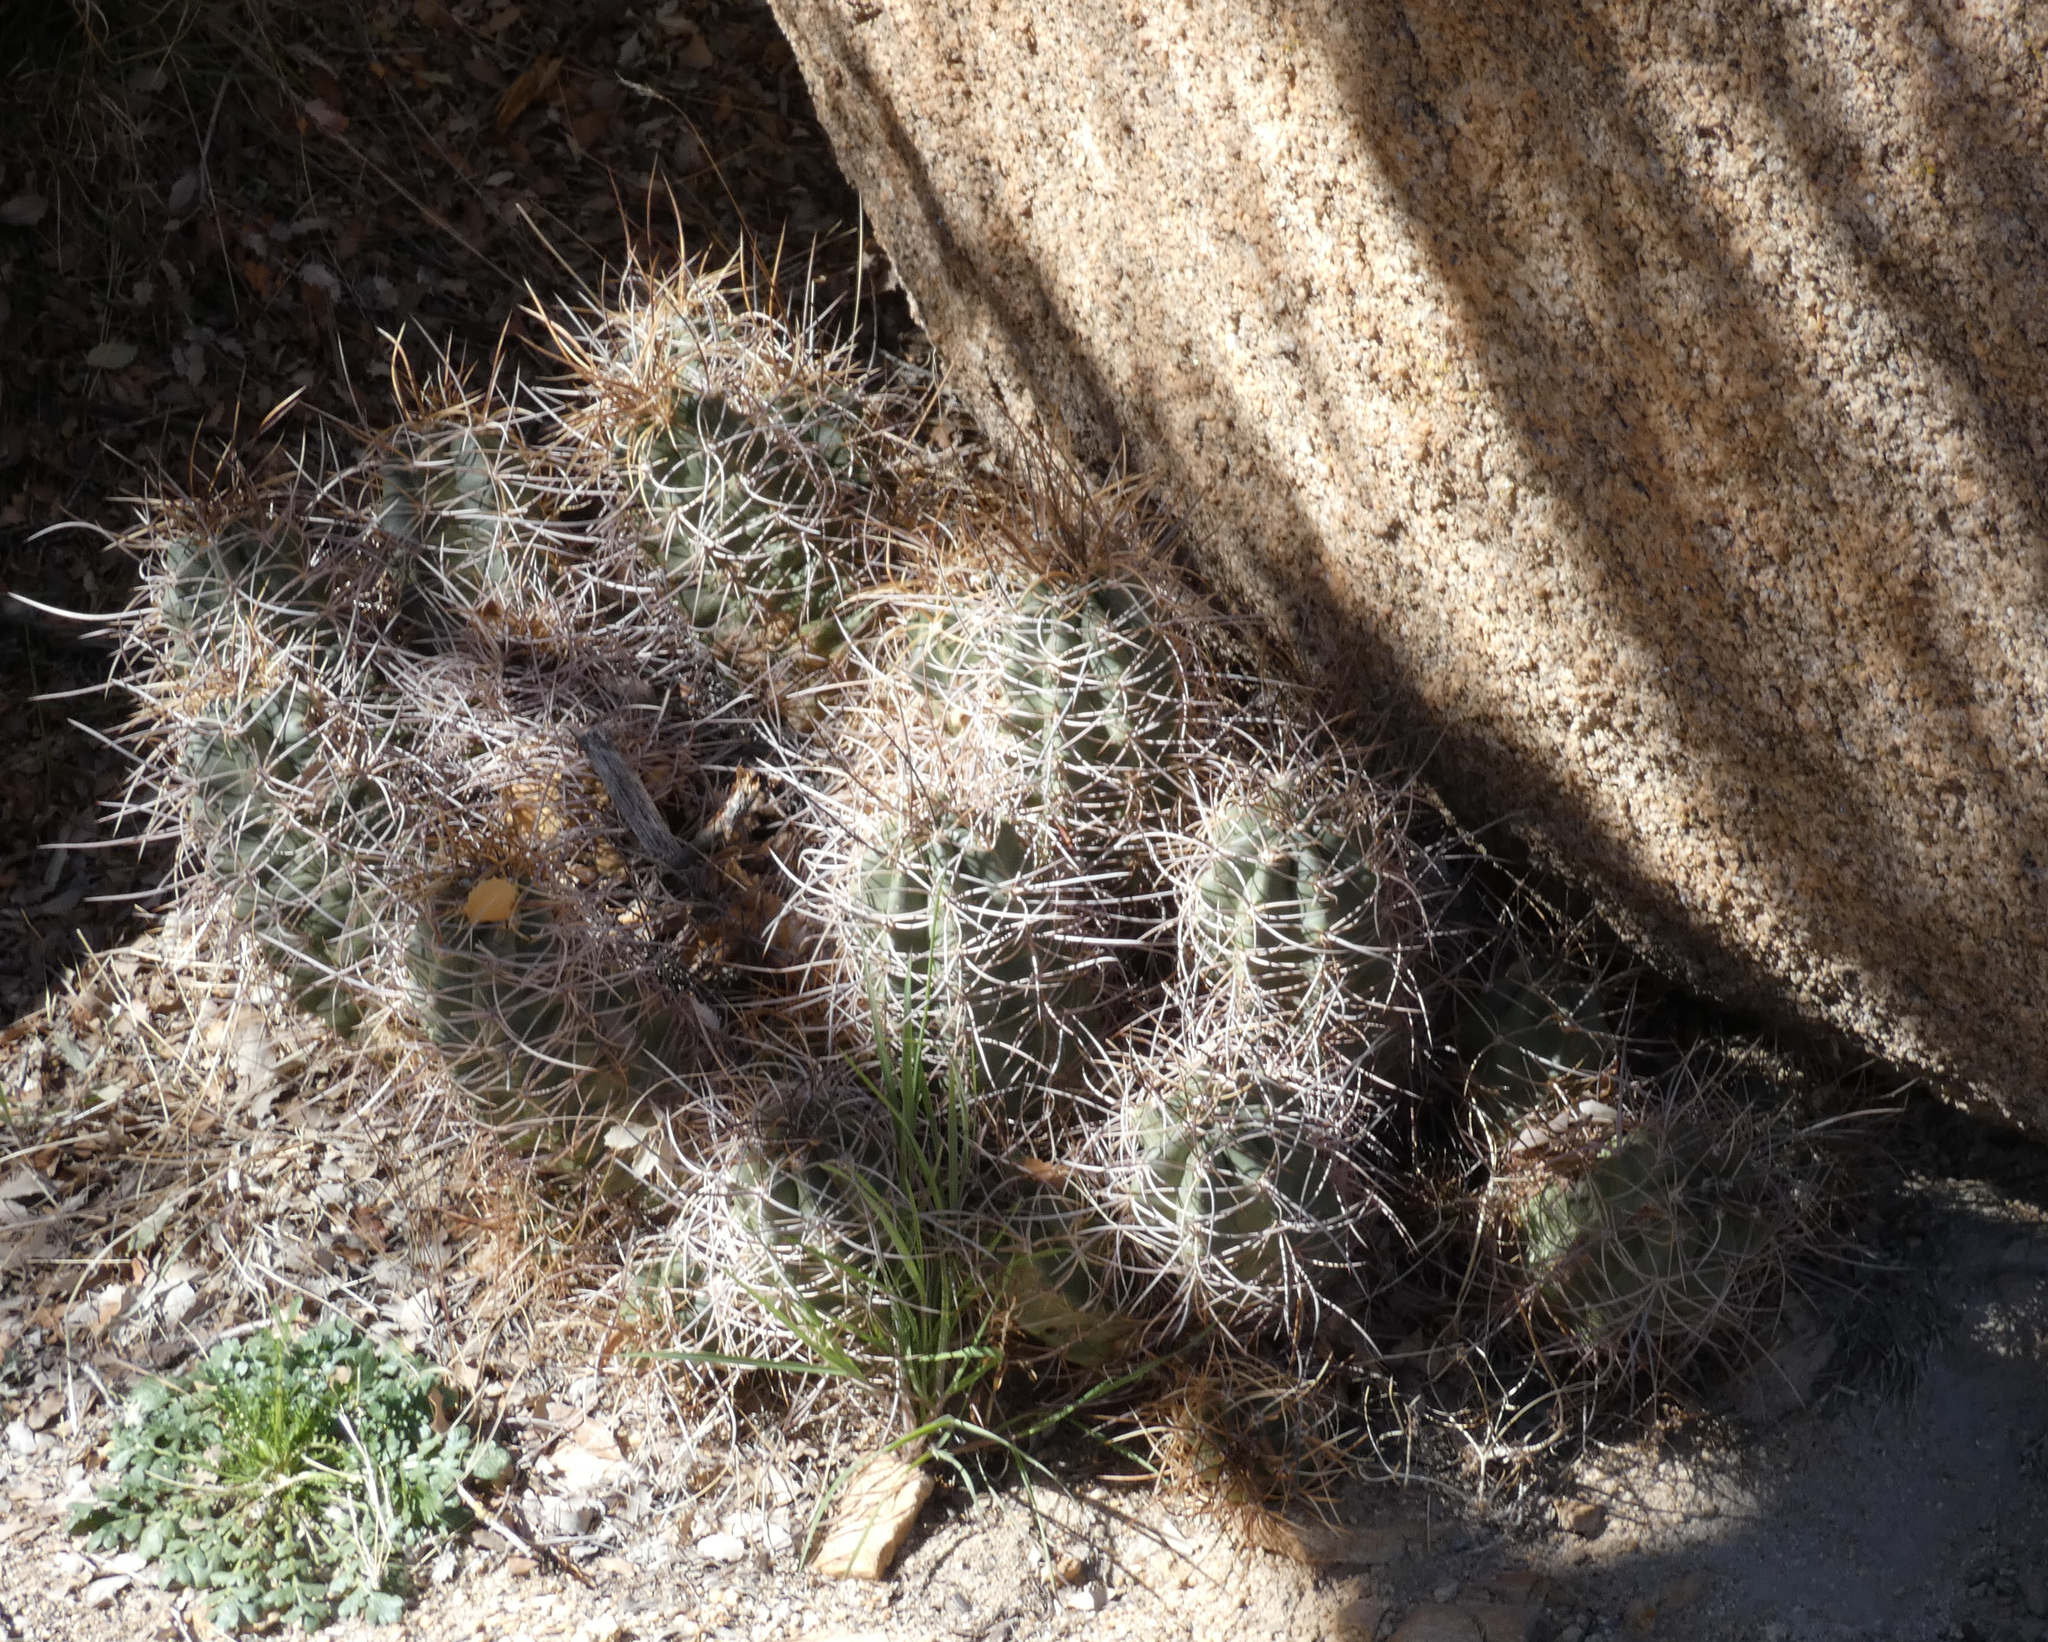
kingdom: Plantae
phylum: Tracheophyta
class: Magnoliopsida
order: Caryophyllales
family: Cactaceae
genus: Echinocereus
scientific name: Echinocereus triglochidiatus
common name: Claretcup hedgehog
